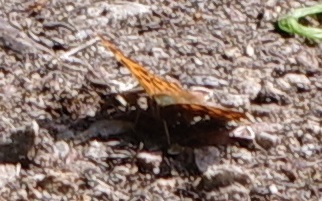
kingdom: Animalia
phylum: Arthropoda
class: Insecta
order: Lepidoptera
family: Nymphalidae
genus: Polygonia
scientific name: Polygonia c-album
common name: Comma
